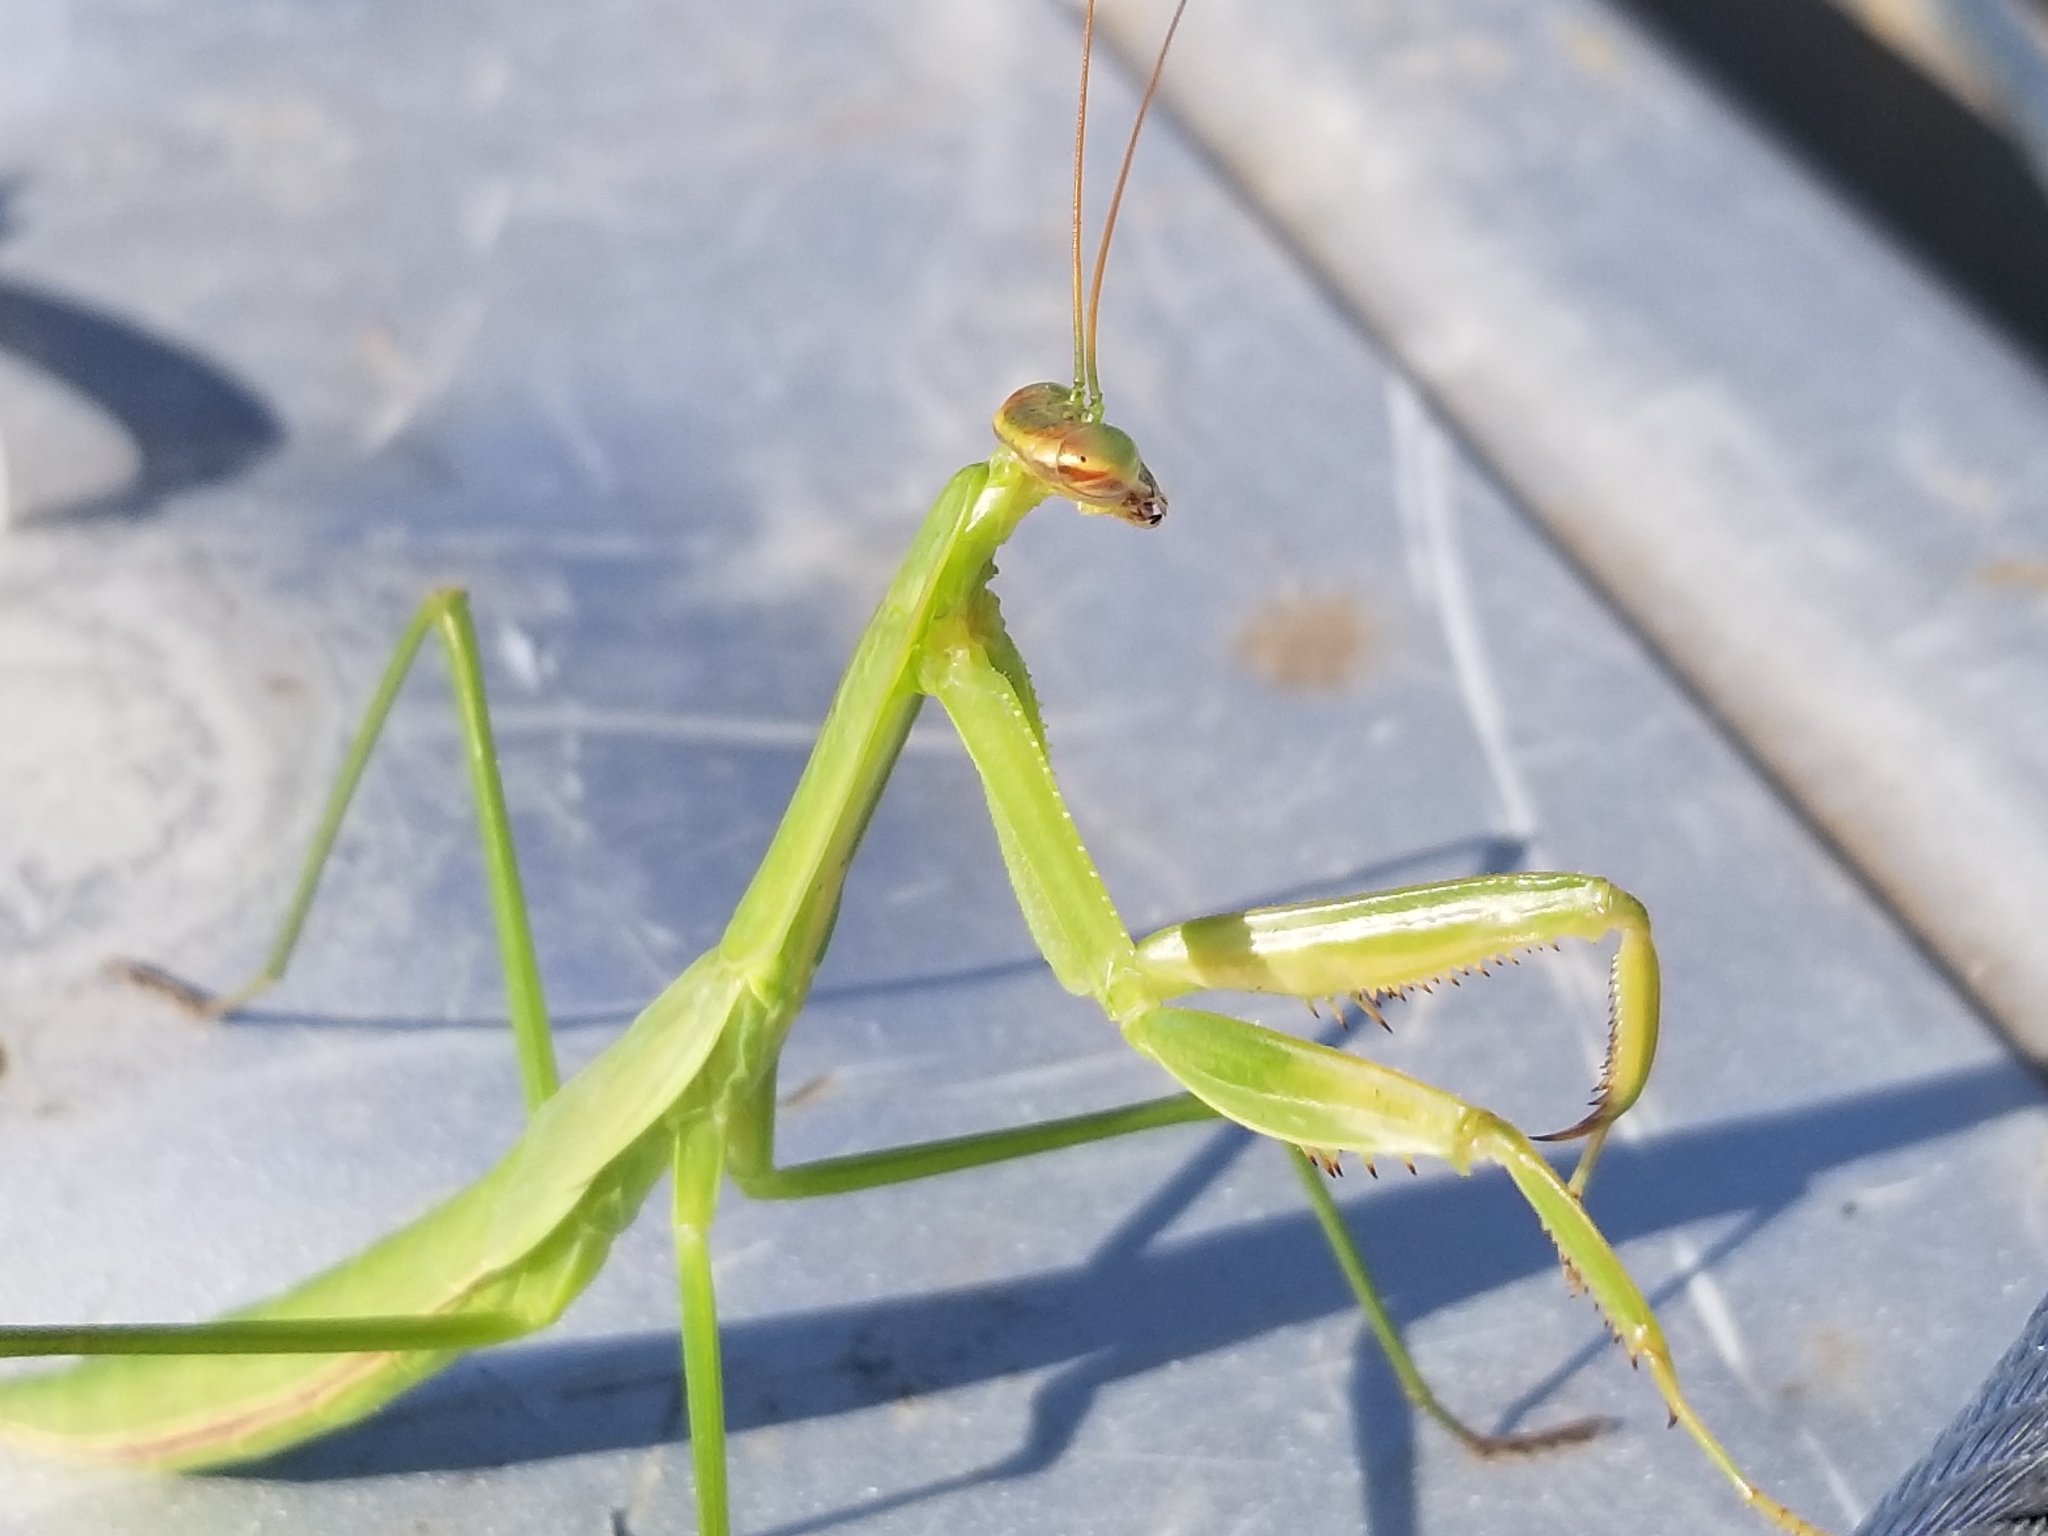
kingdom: Animalia
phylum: Arthropoda
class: Insecta
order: Mantodea
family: Mantidae
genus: Tenodera
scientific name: Tenodera sinensis
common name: Chinese mantis
